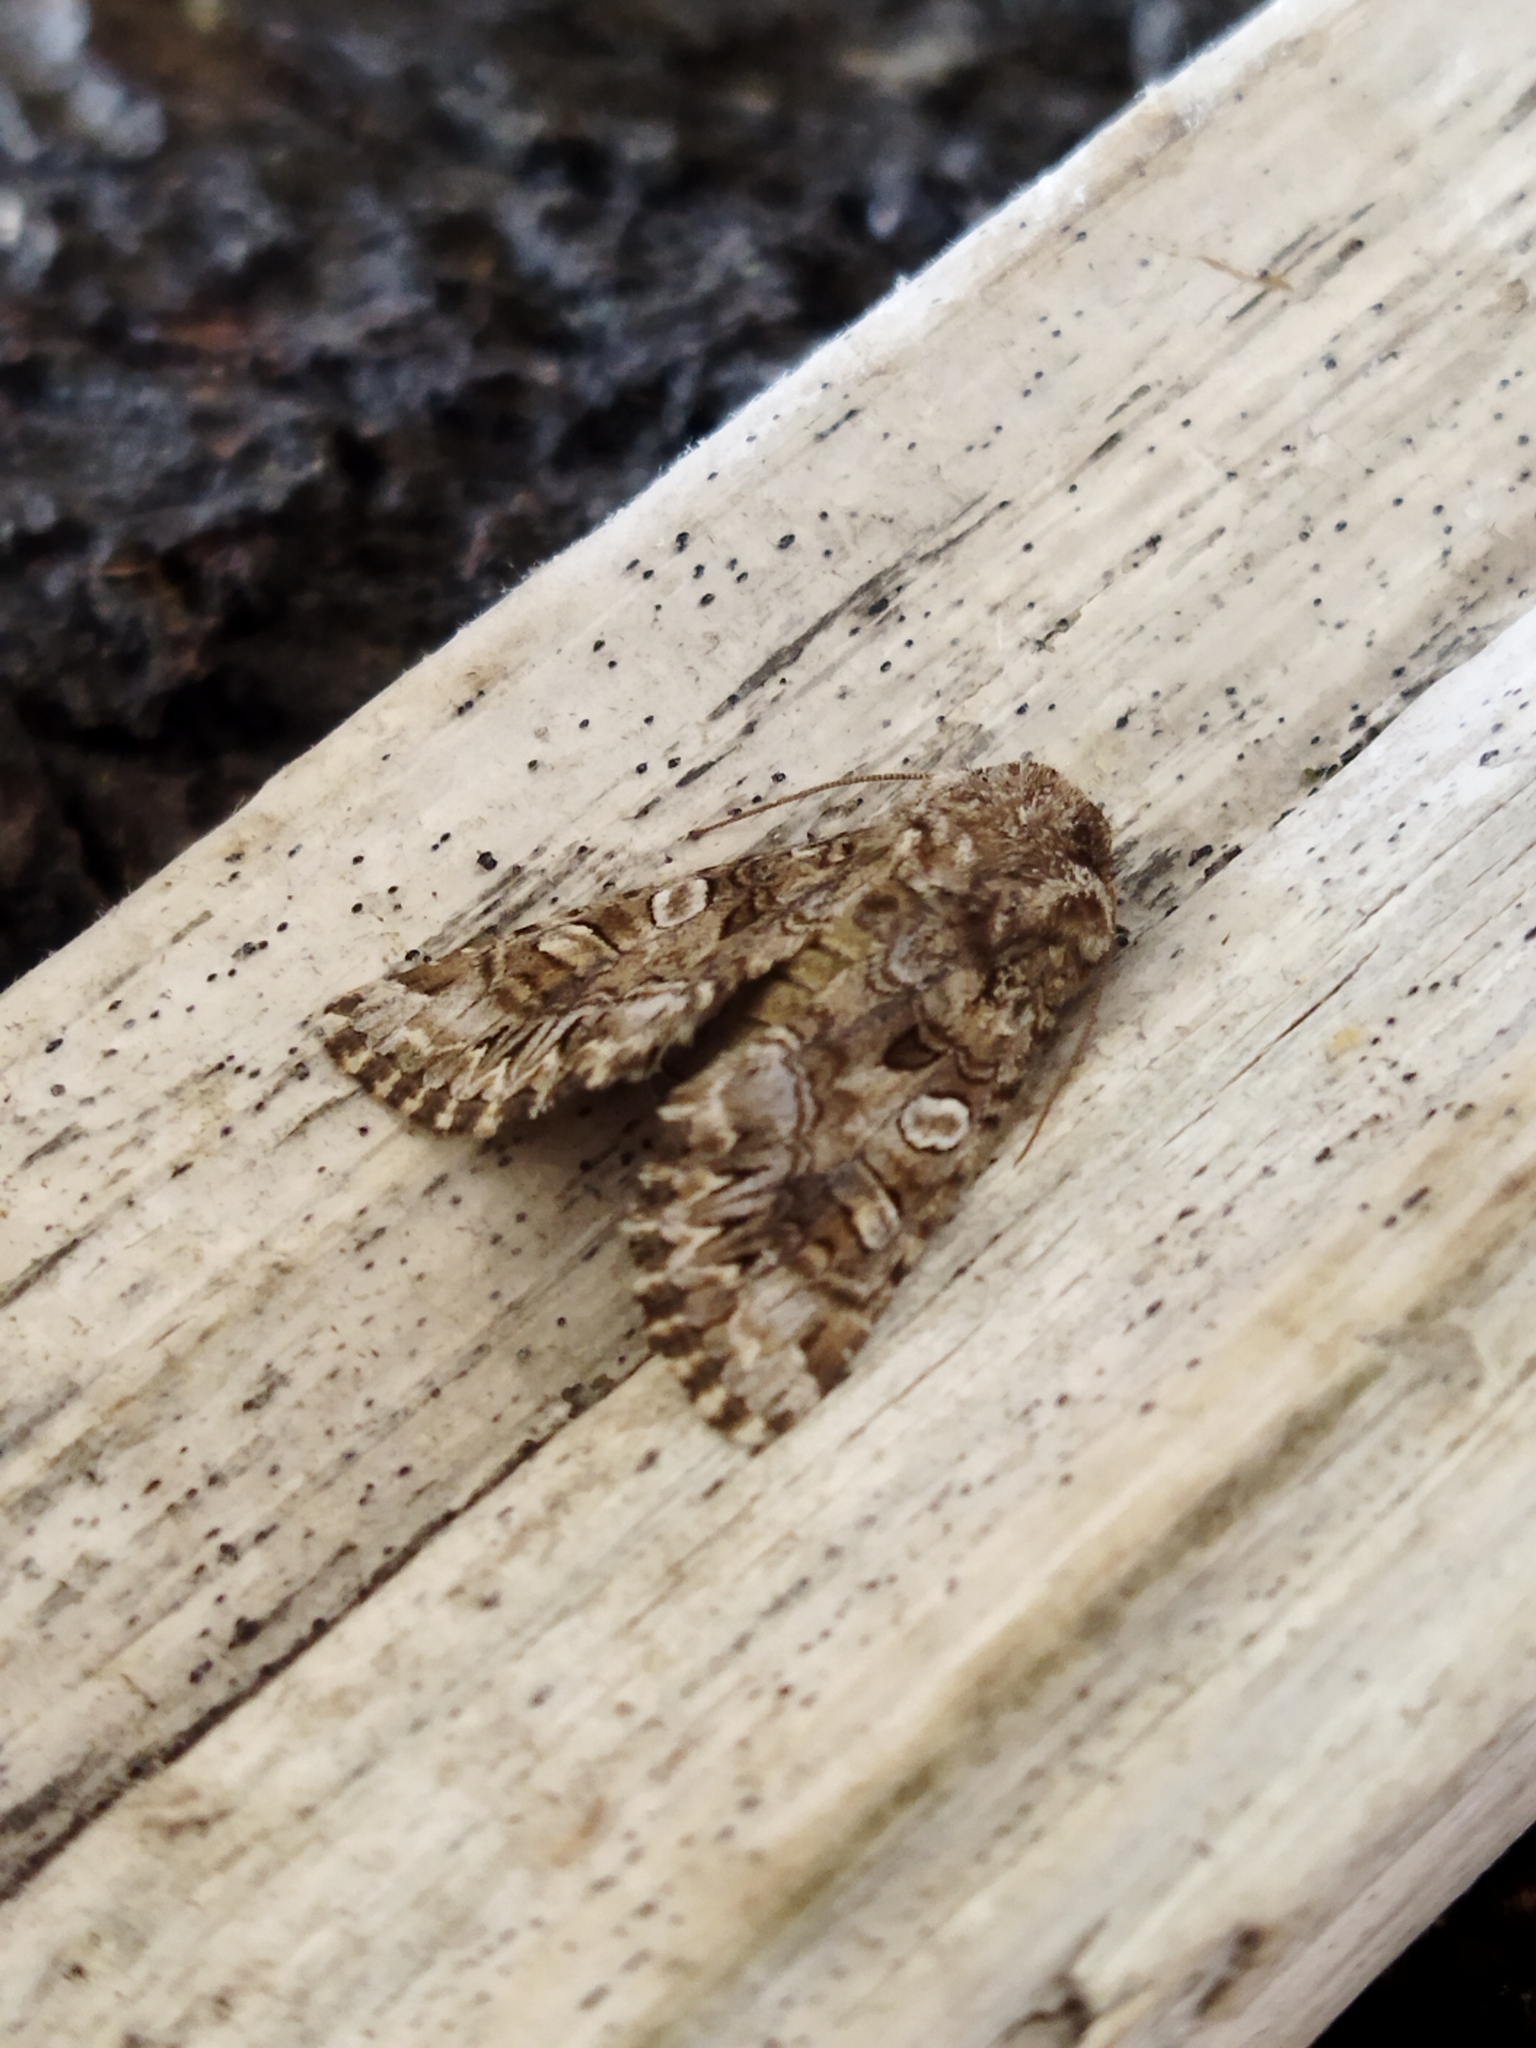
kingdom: Animalia
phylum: Arthropoda
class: Insecta
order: Lepidoptera
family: Noctuidae
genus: Hadena
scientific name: Hadena silenes
